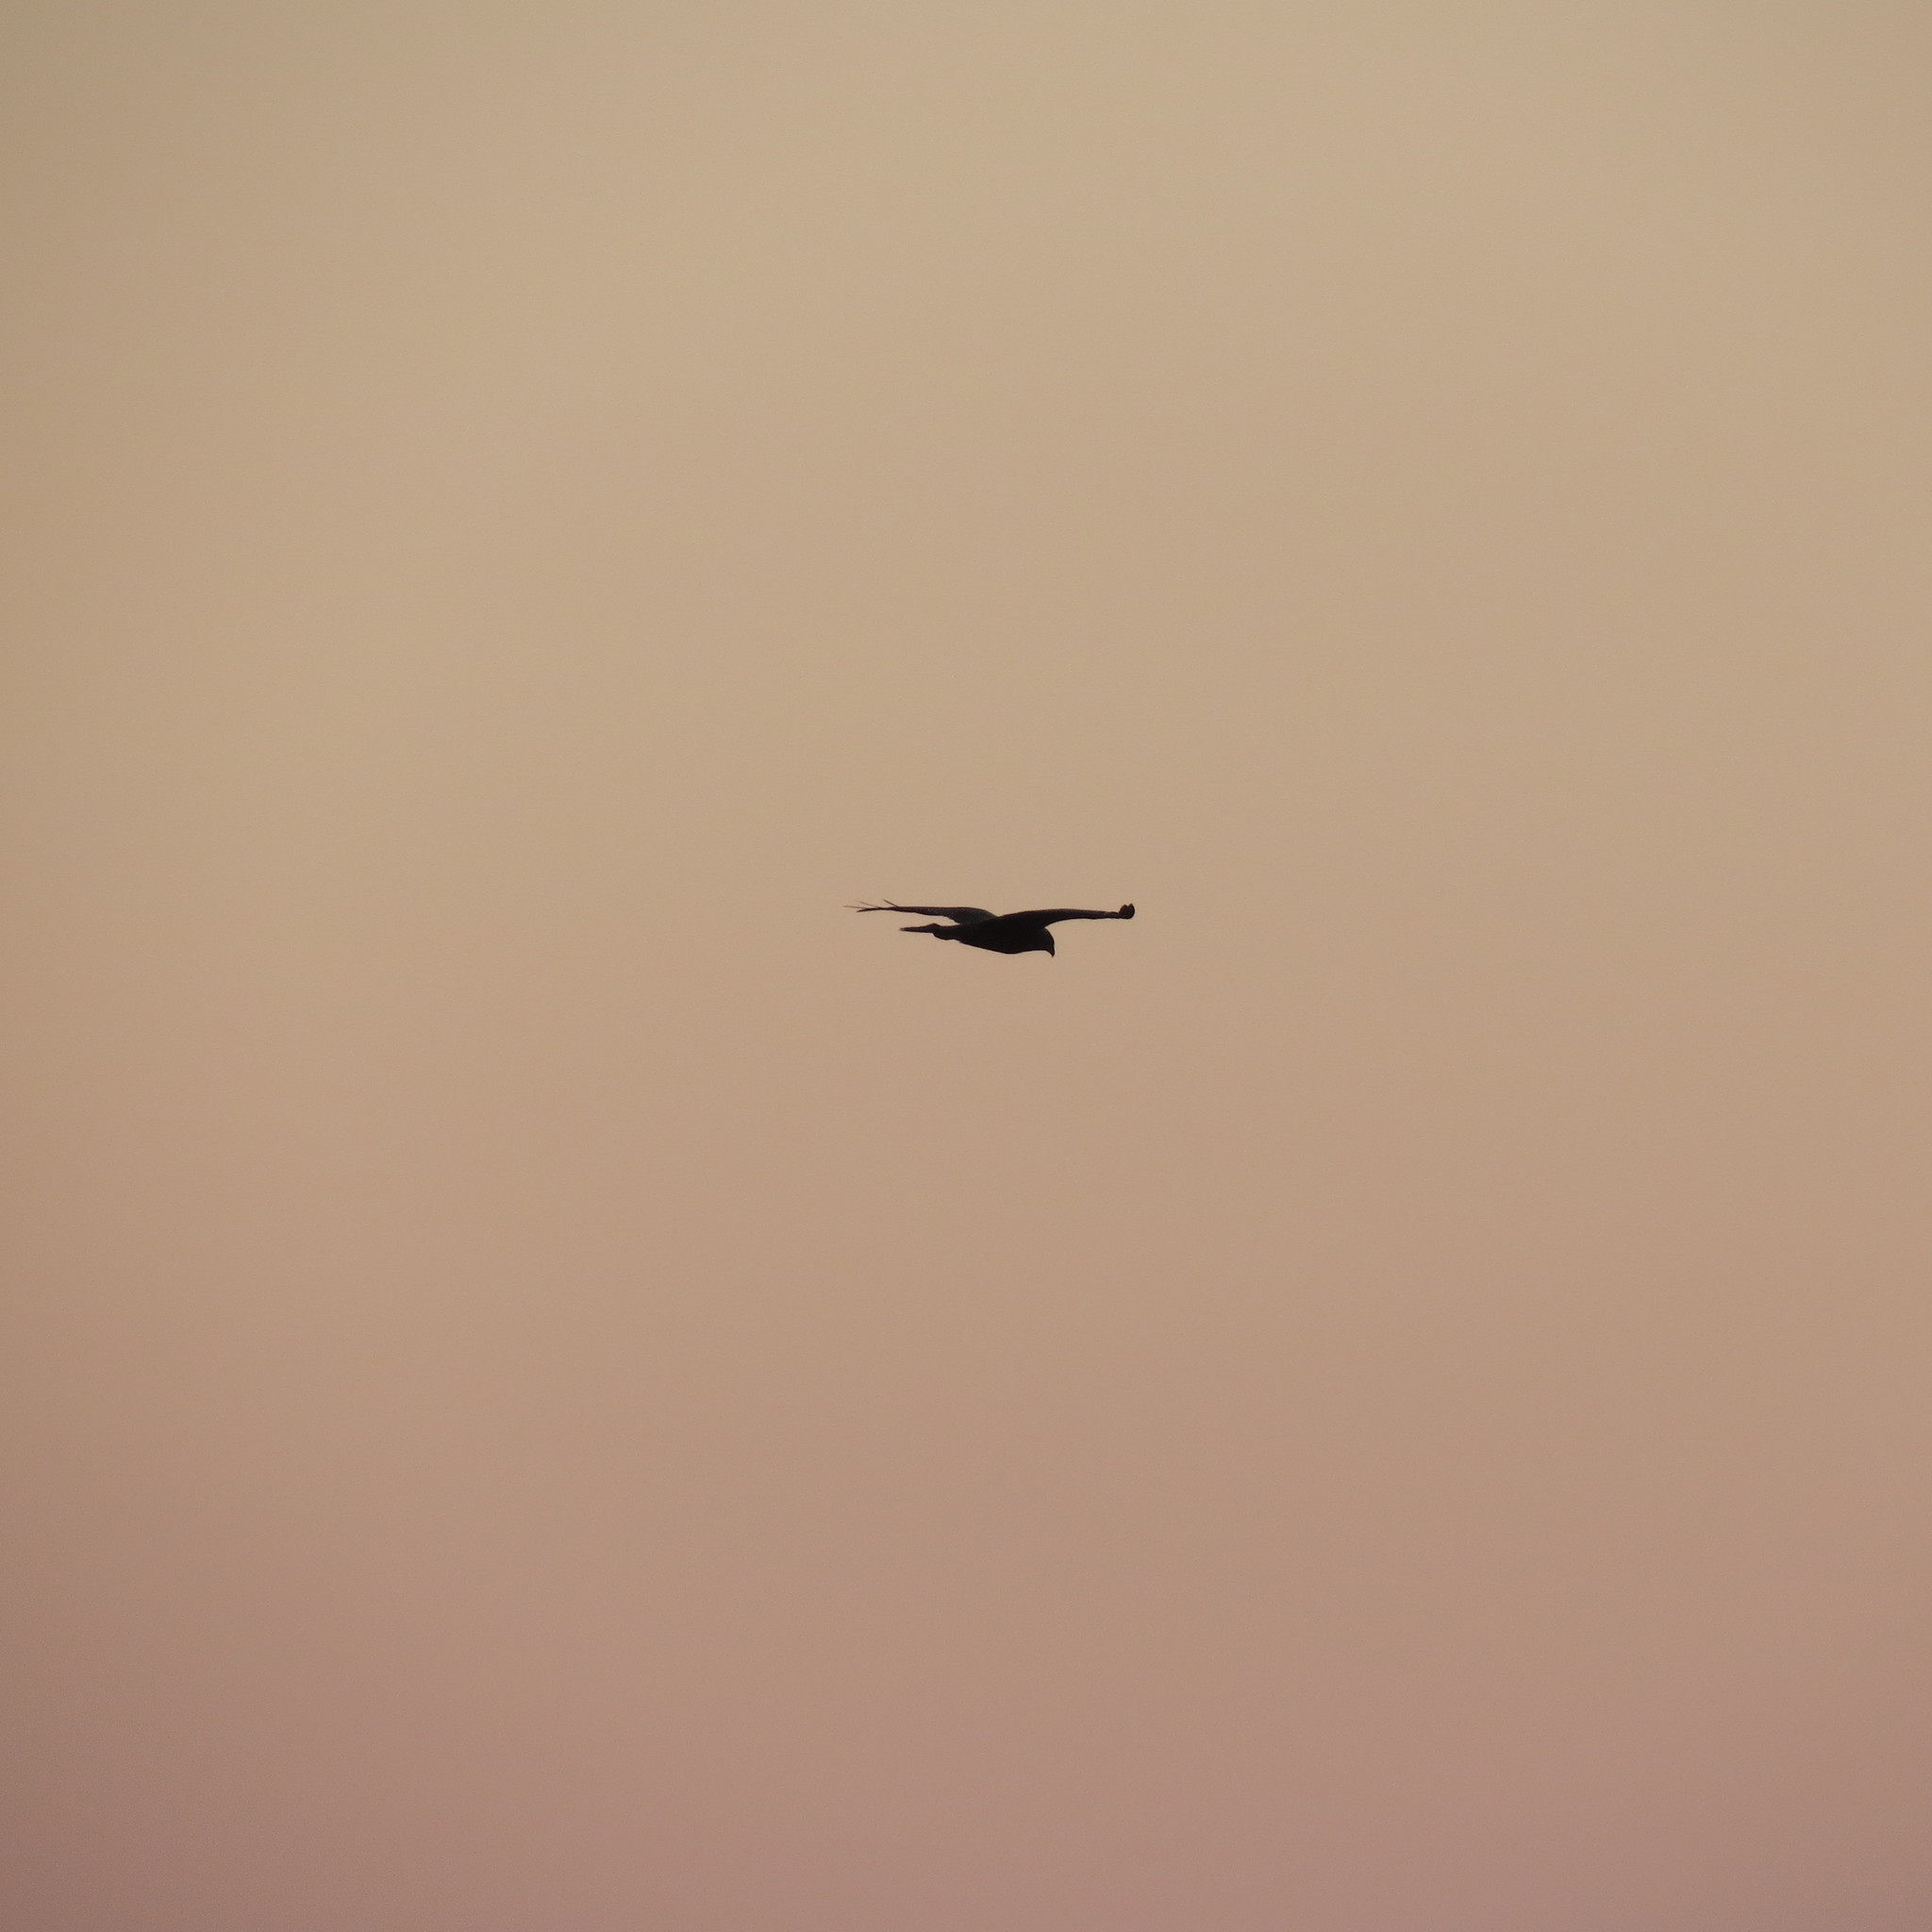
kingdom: Animalia
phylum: Chordata
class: Aves
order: Accipitriformes
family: Accipitridae
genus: Circus
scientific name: Circus aeruginosus
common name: Western marsh harrier
